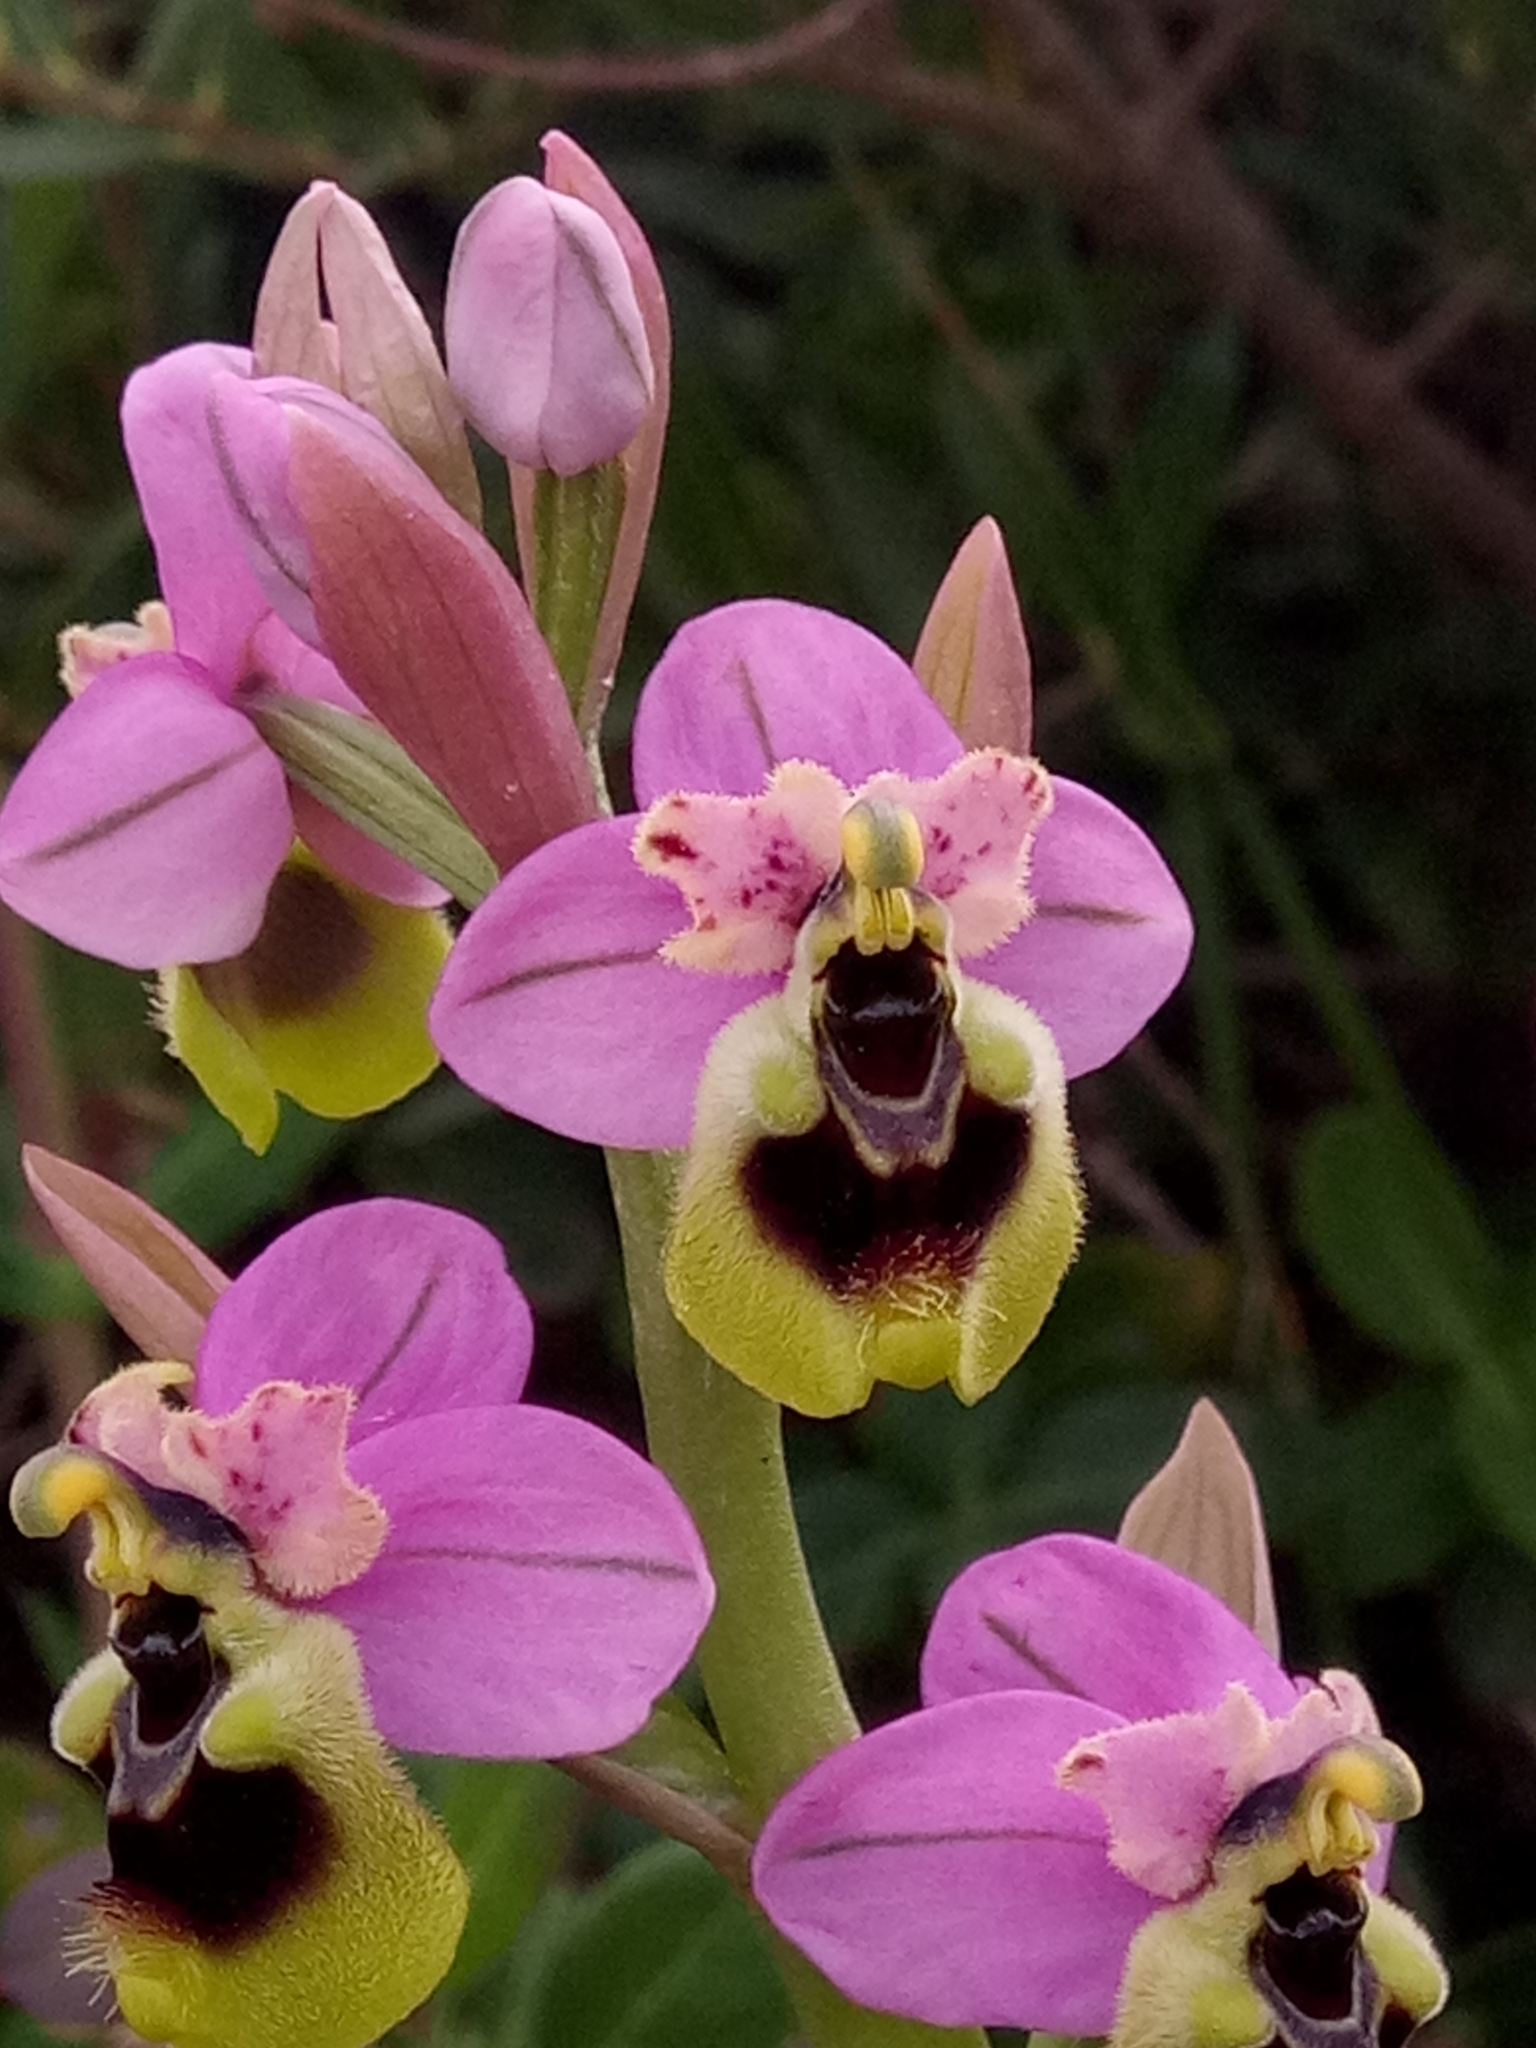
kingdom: Plantae
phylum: Tracheophyta
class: Liliopsida
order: Asparagales
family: Orchidaceae
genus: Ophrys
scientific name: Ophrys tenthredinifera
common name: Sawfly orchid
